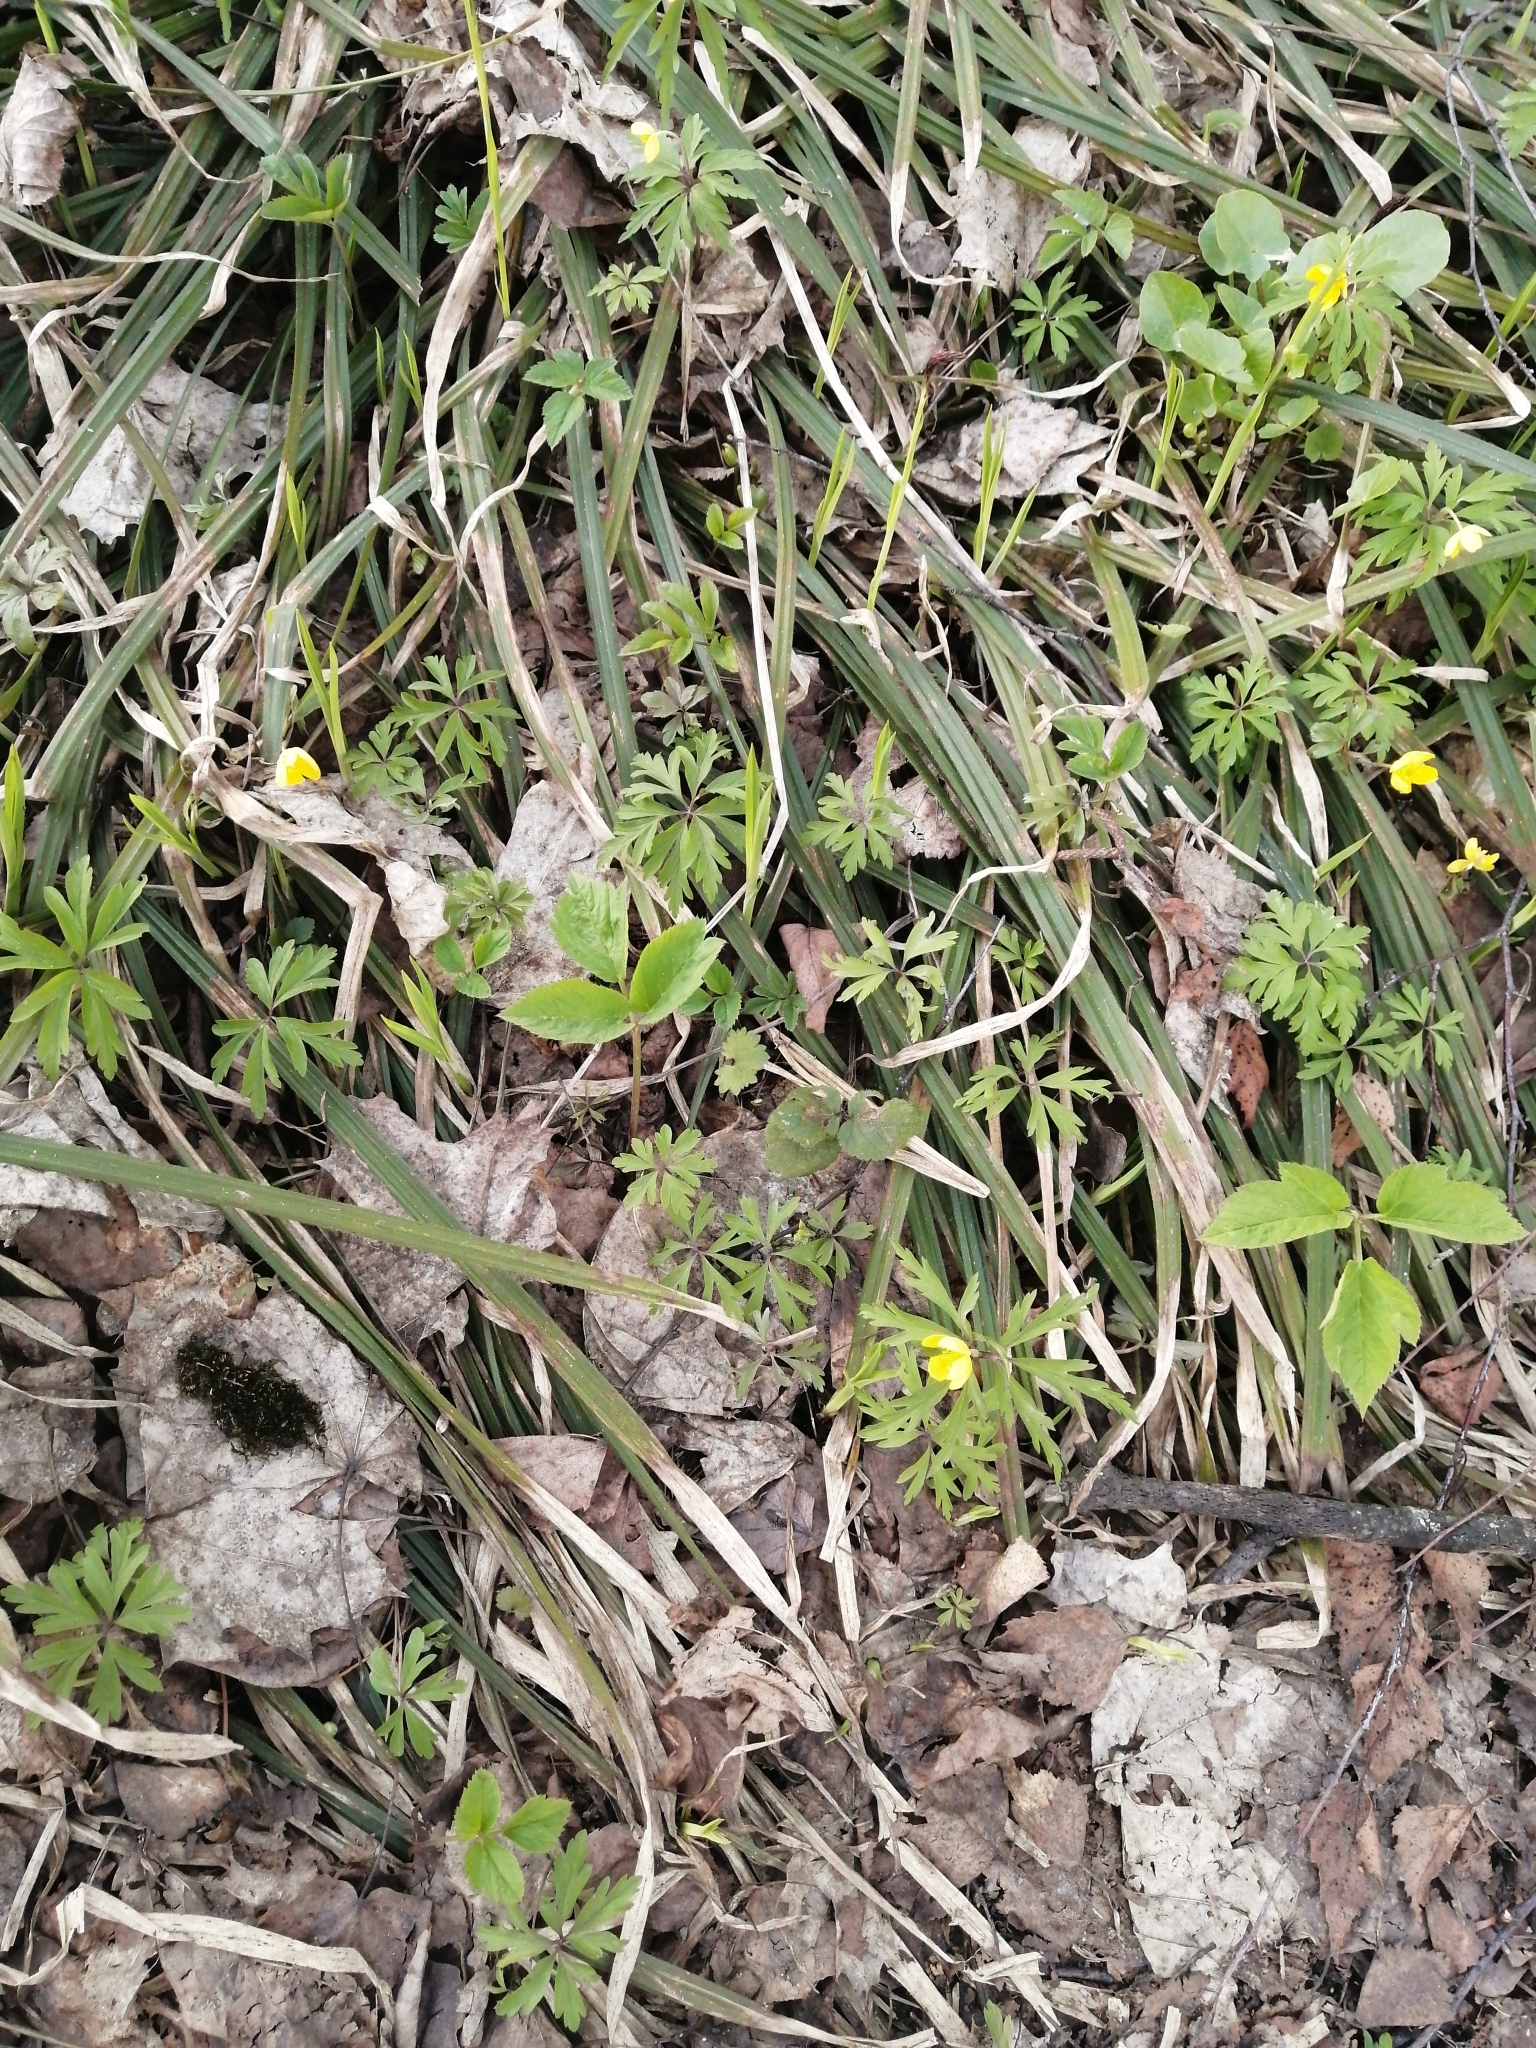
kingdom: Plantae
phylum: Tracheophyta
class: Magnoliopsida
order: Ranunculales
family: Ranunculaceae
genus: Anemone
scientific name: Anemone ranunculoides
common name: Yellow anemone
